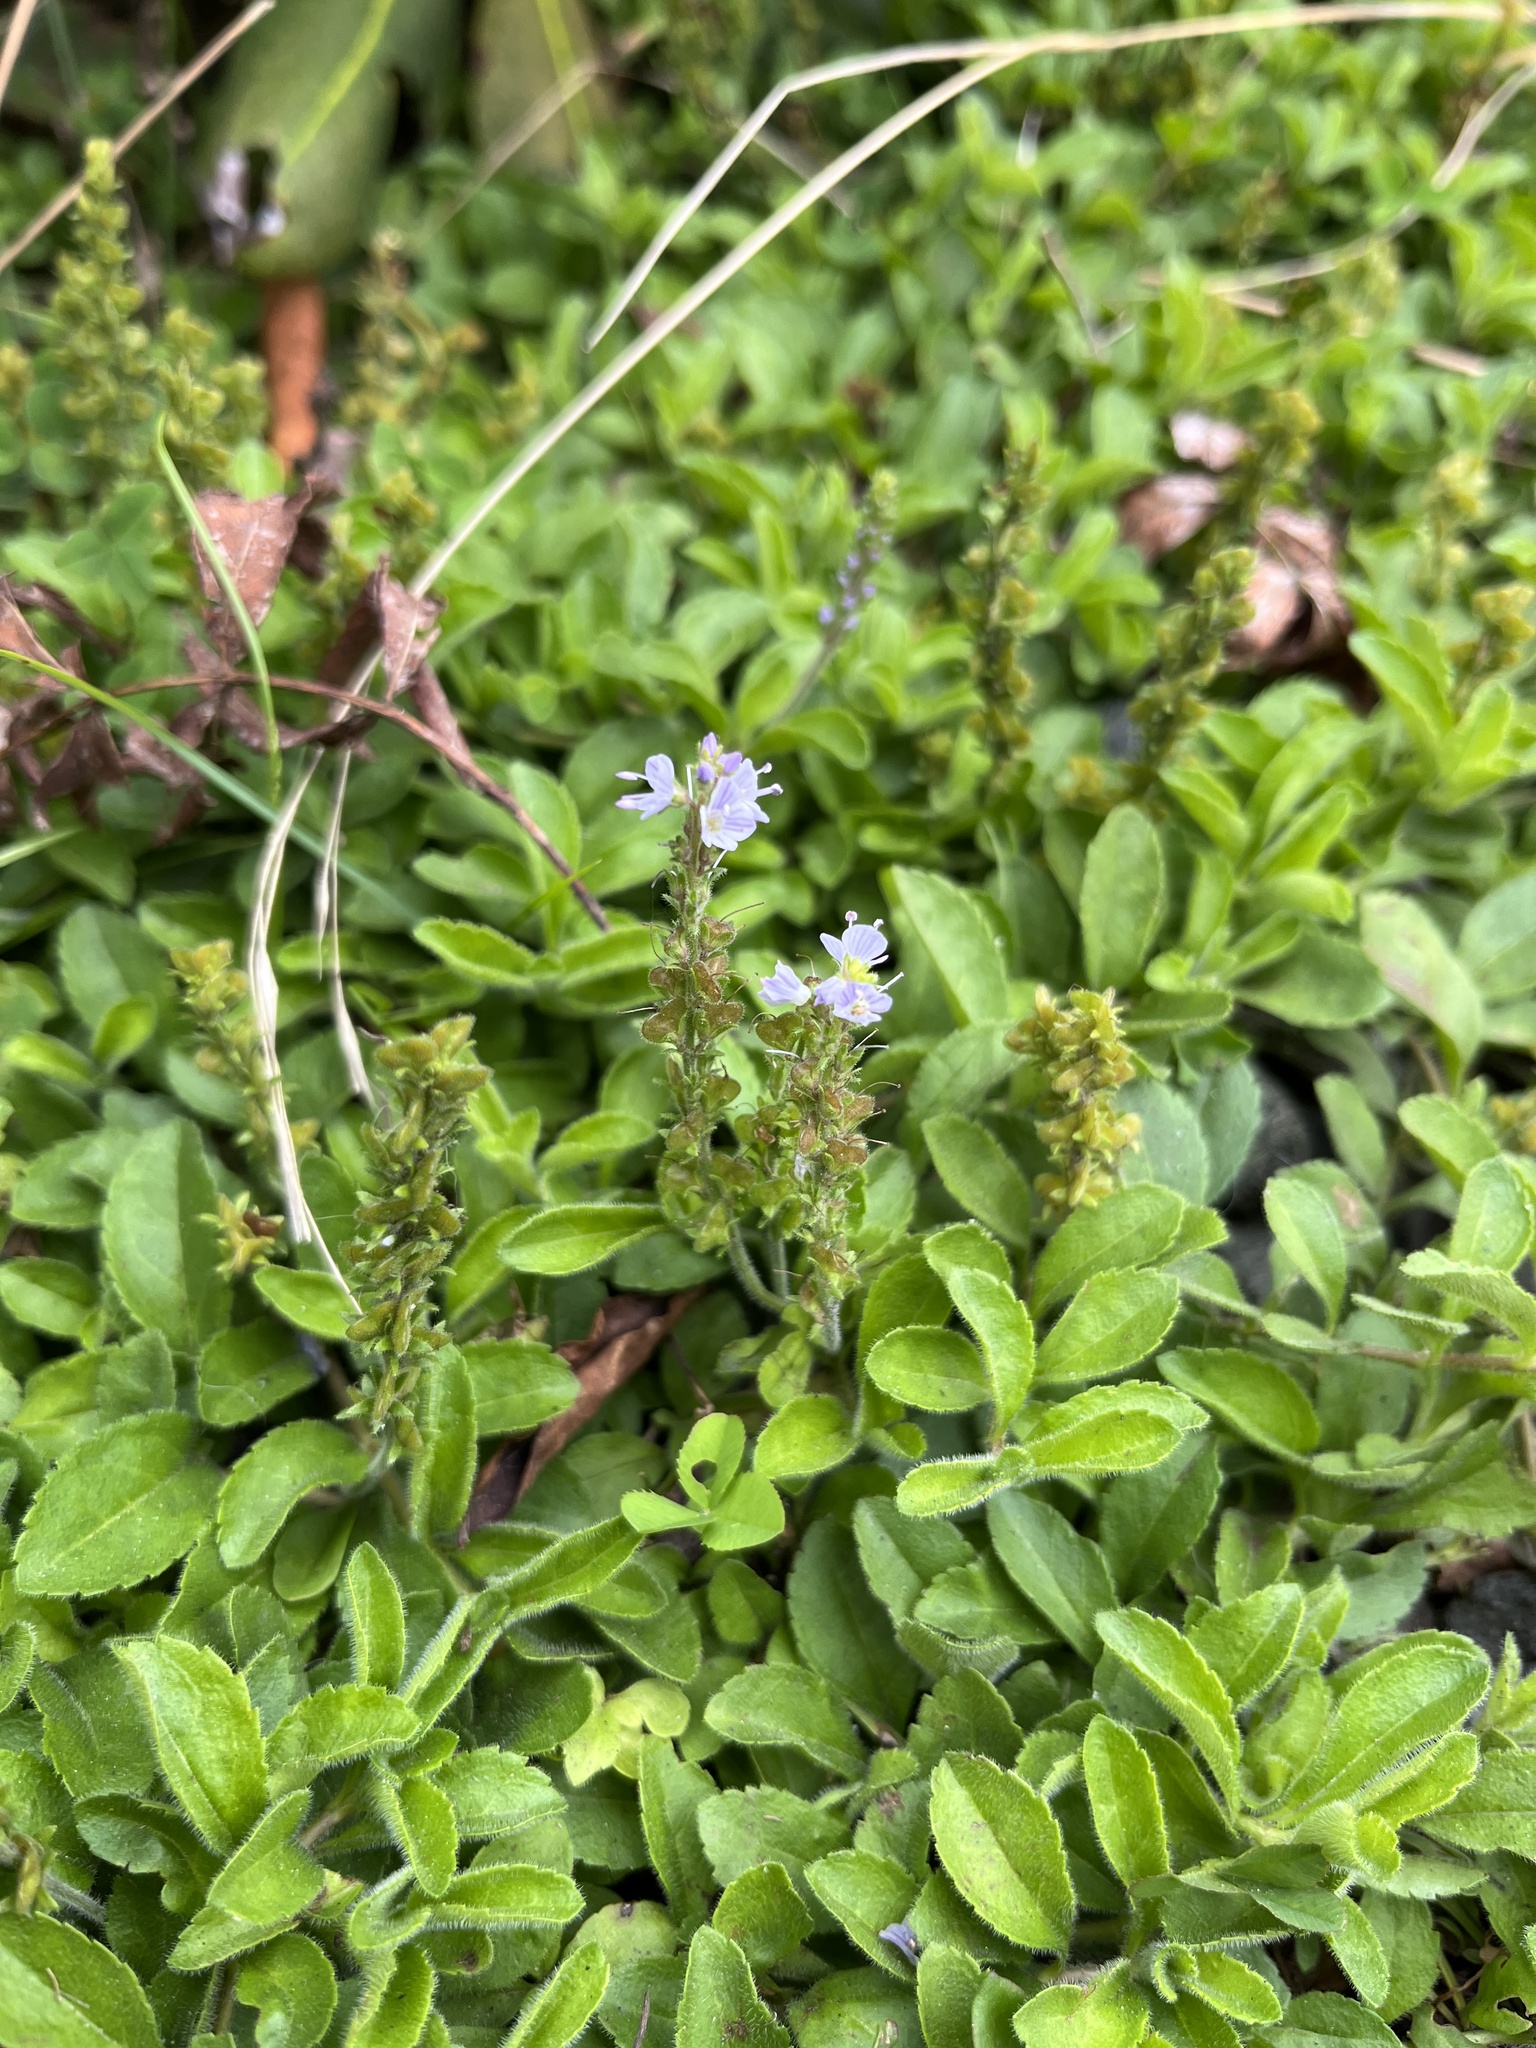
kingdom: Plantae
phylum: Tracheophyta
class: Magnoliopsida
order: Lamiales
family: Plantaginaceae
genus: Veronica
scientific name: Veronica officinalis
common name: Common speedwell
